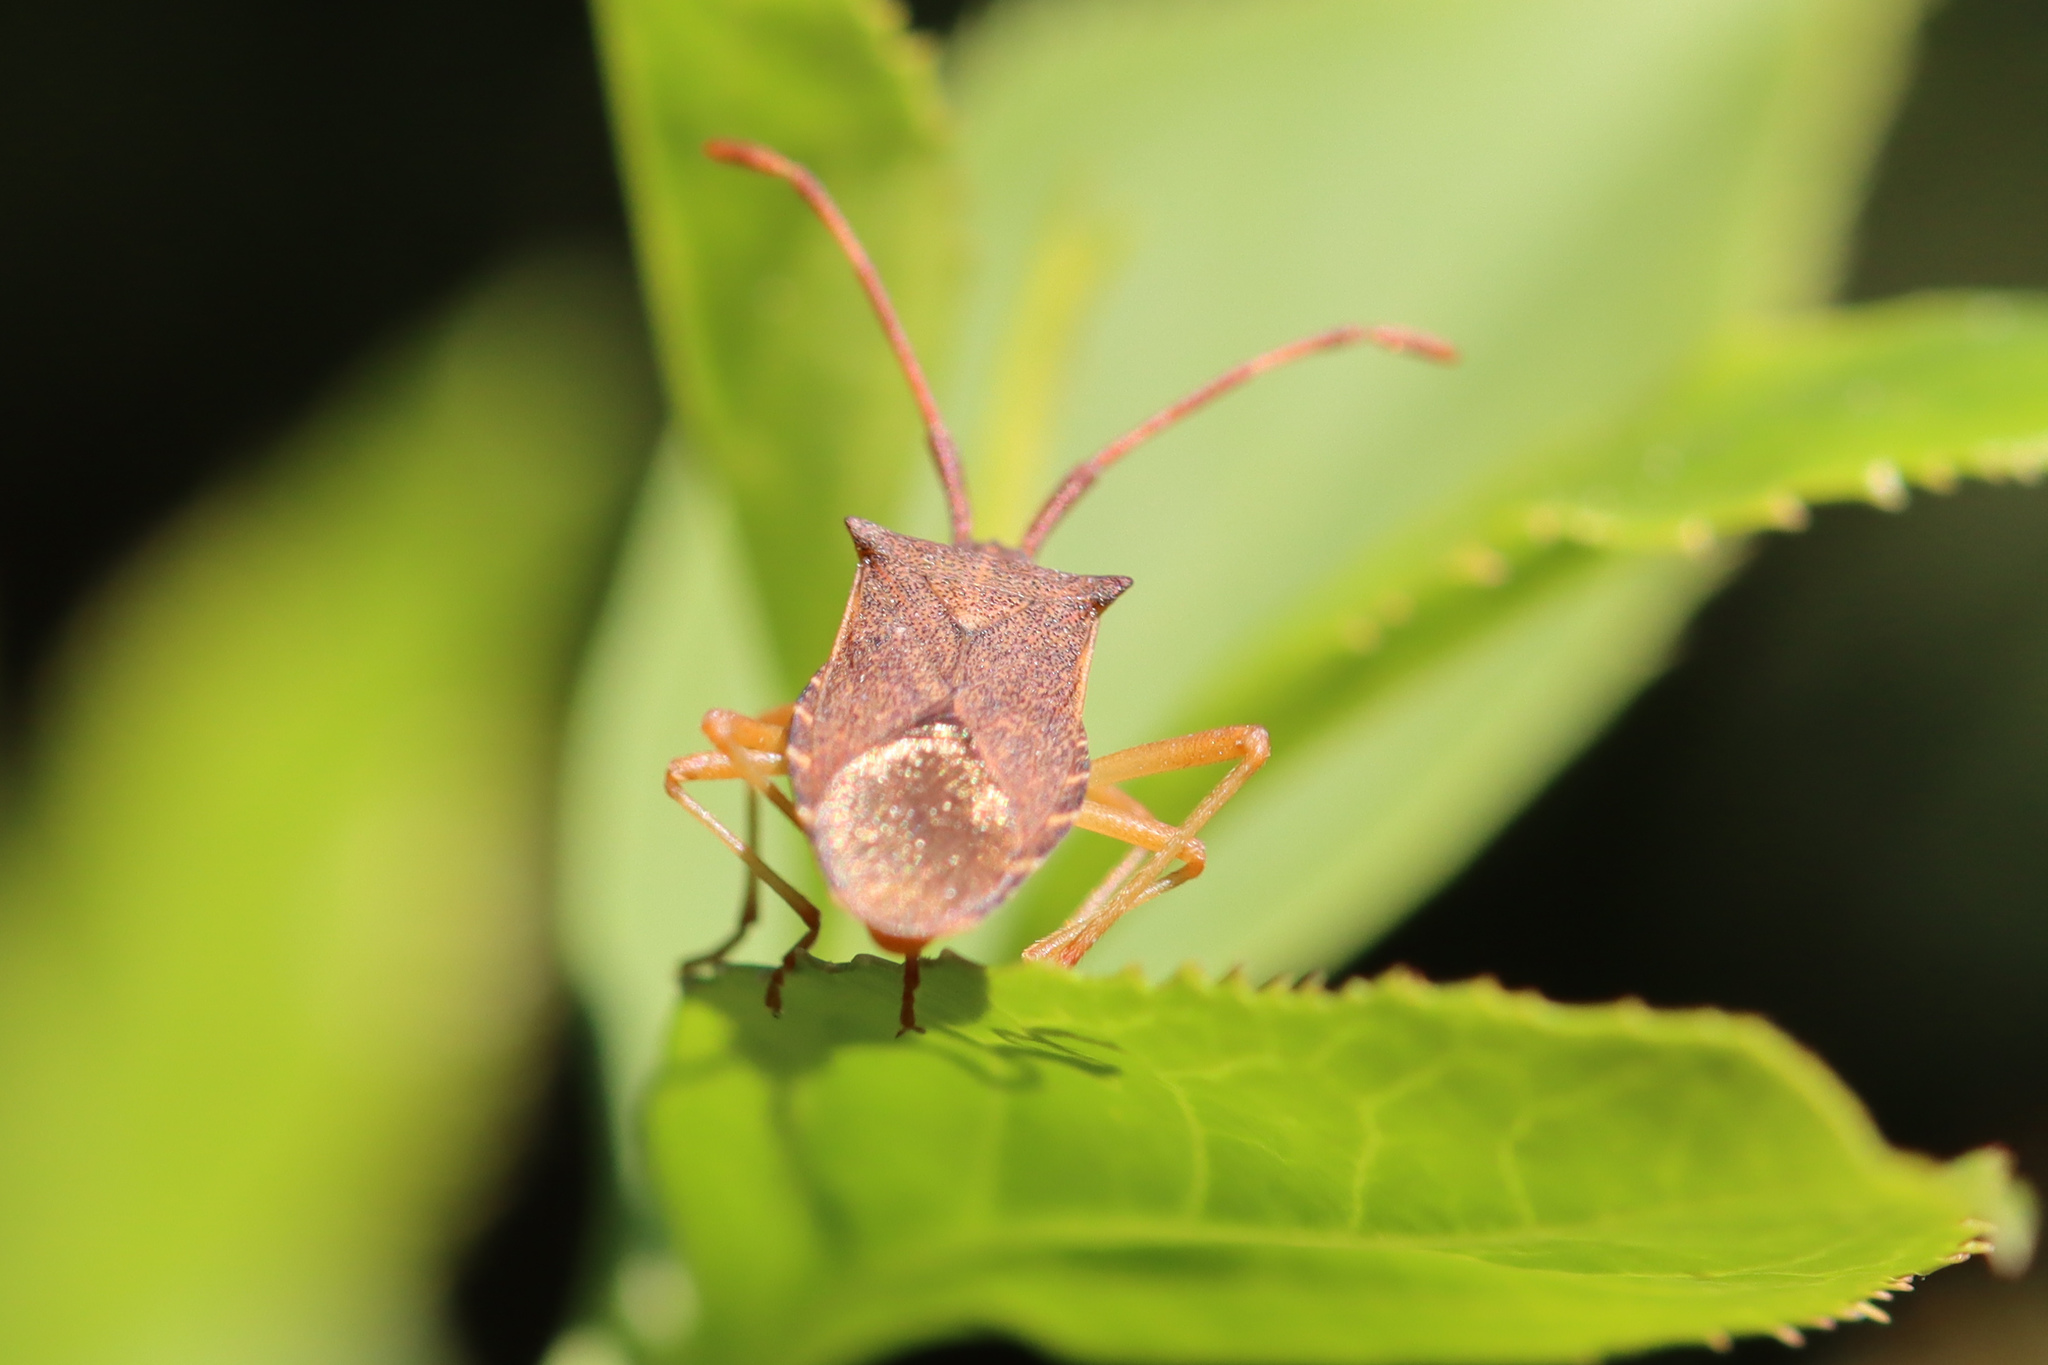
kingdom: Animalia
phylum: Arthropoda
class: Insecta
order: Hemiptera
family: Coreidae
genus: Gonocerus
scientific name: Gonocerus acuteangulatus
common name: Box bug
